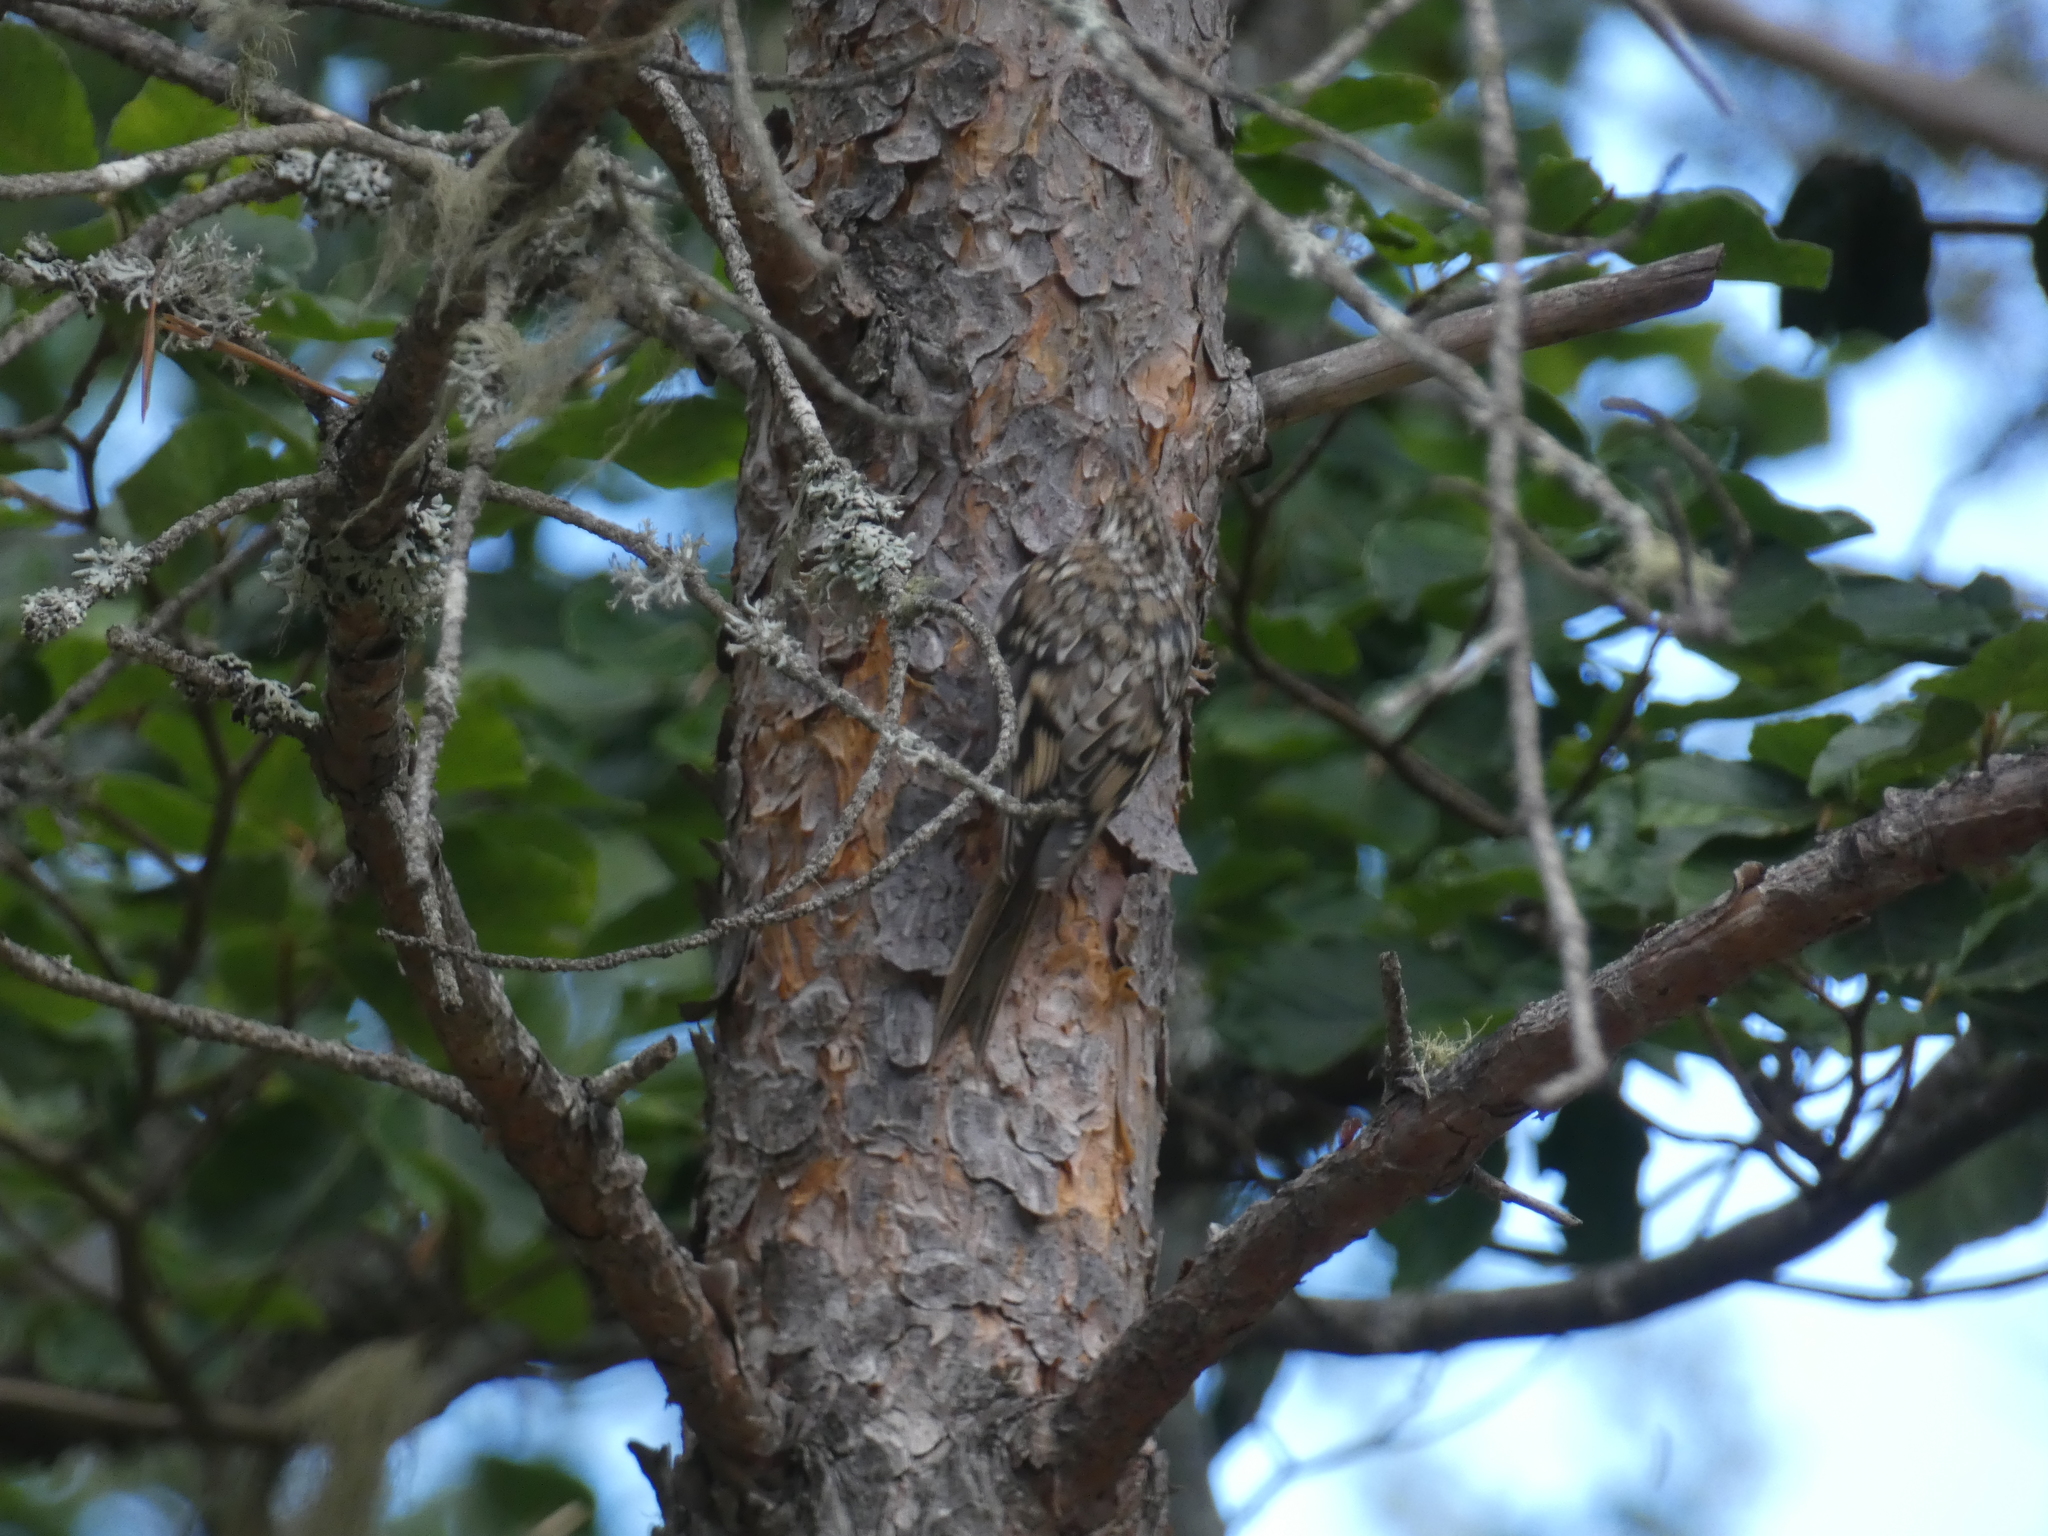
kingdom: Animalia
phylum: Chordata
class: Aves
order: Passeriformes
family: Certhiidae
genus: Certhia
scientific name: Certhia familiaris
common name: Eurasian treecreeper
